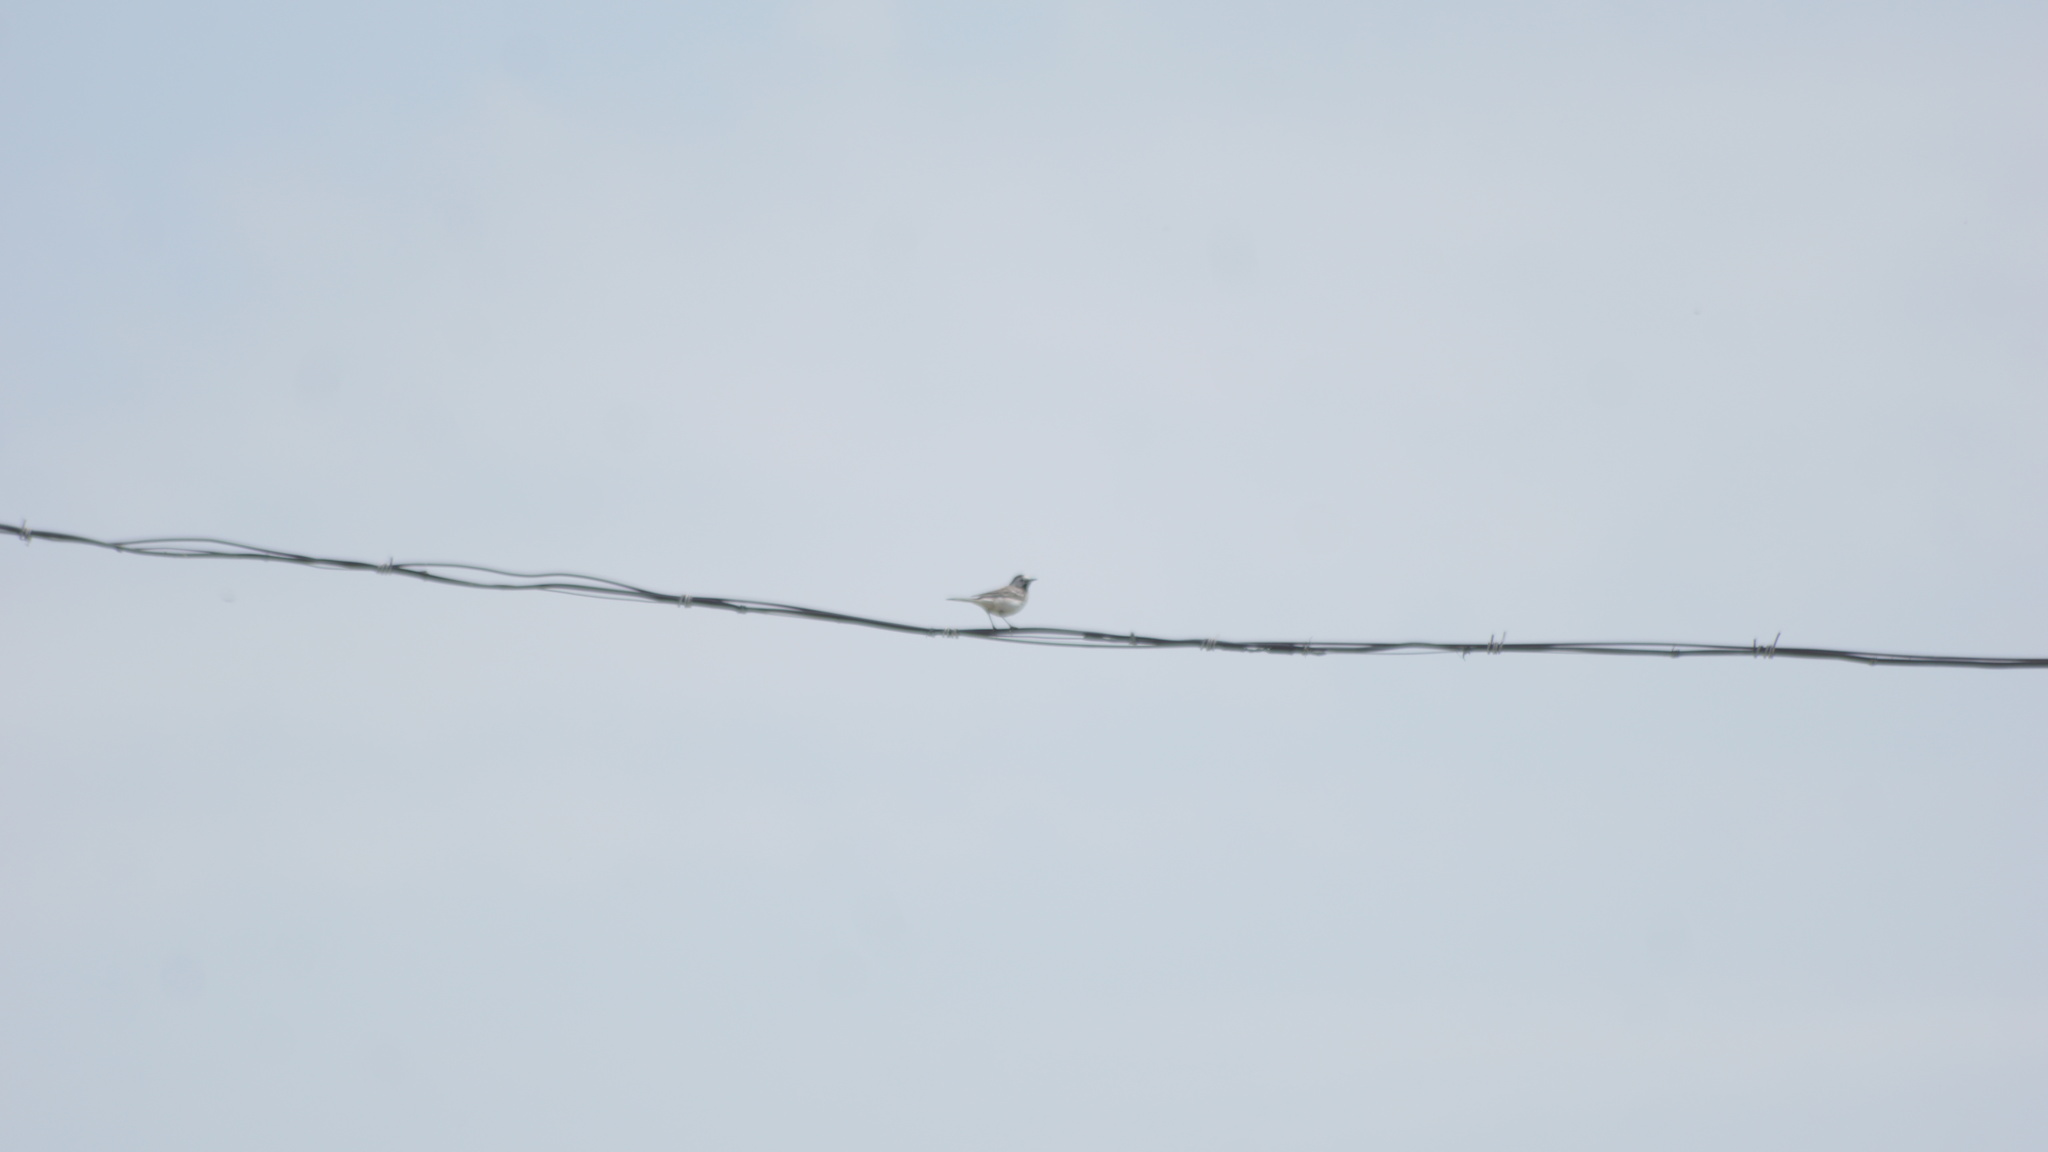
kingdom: Animalia
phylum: Chordata
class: Aves
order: Passeriformes
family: Motacillidae
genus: Motacilla
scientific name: Motacilla alba
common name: White wagtail
